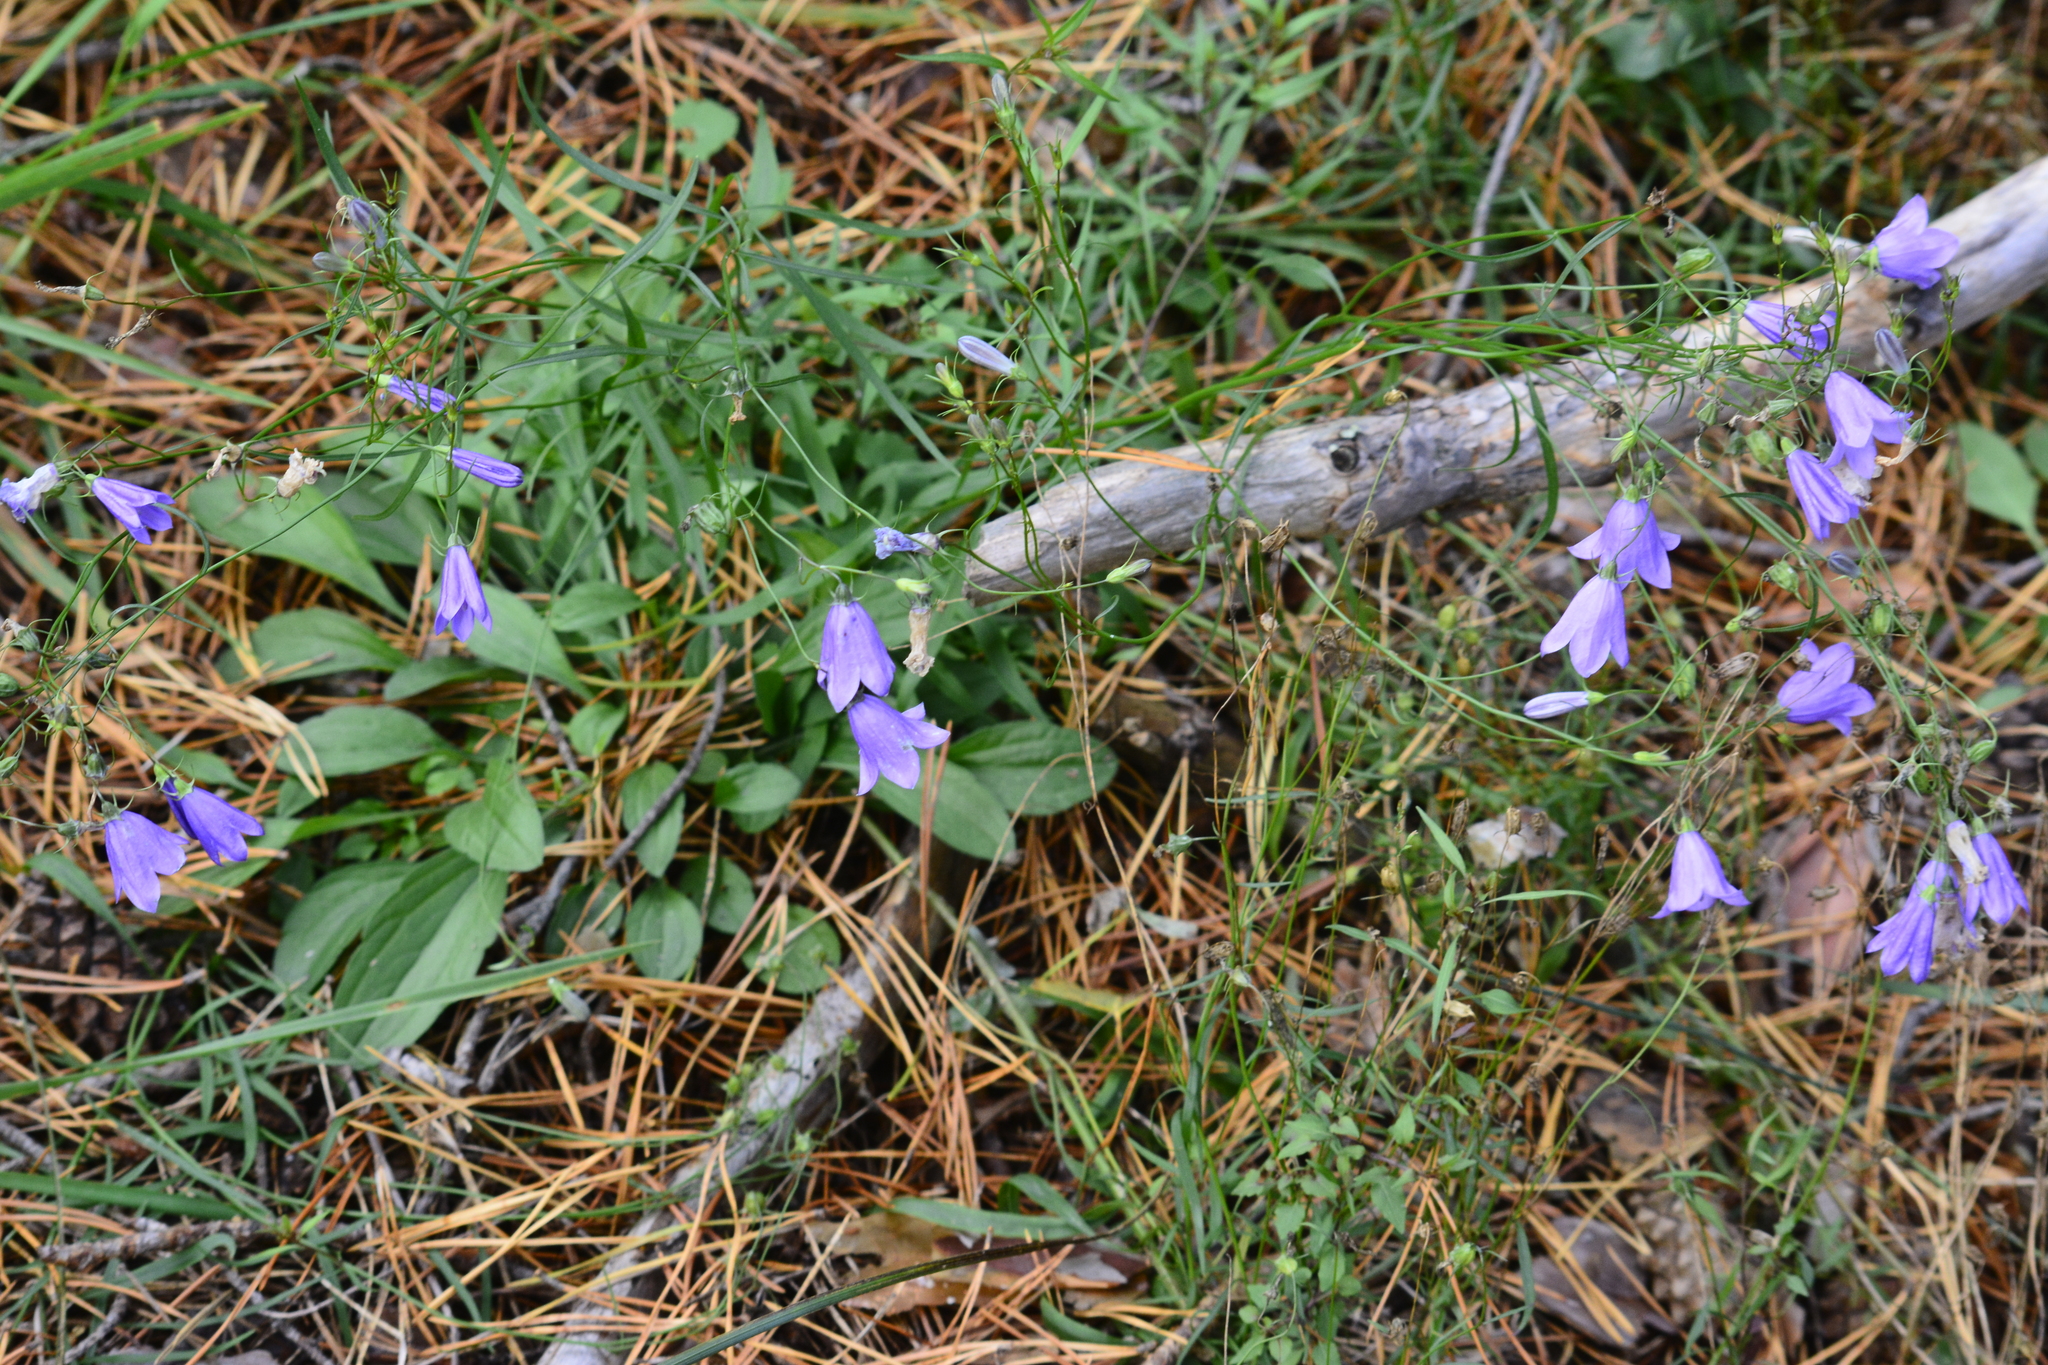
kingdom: Plantae
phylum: Tracheophyta
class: Magnoliopsida
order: Asterales
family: Campanulaceae
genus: Campanula
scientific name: Campanula rotundifolia
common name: Harebell
